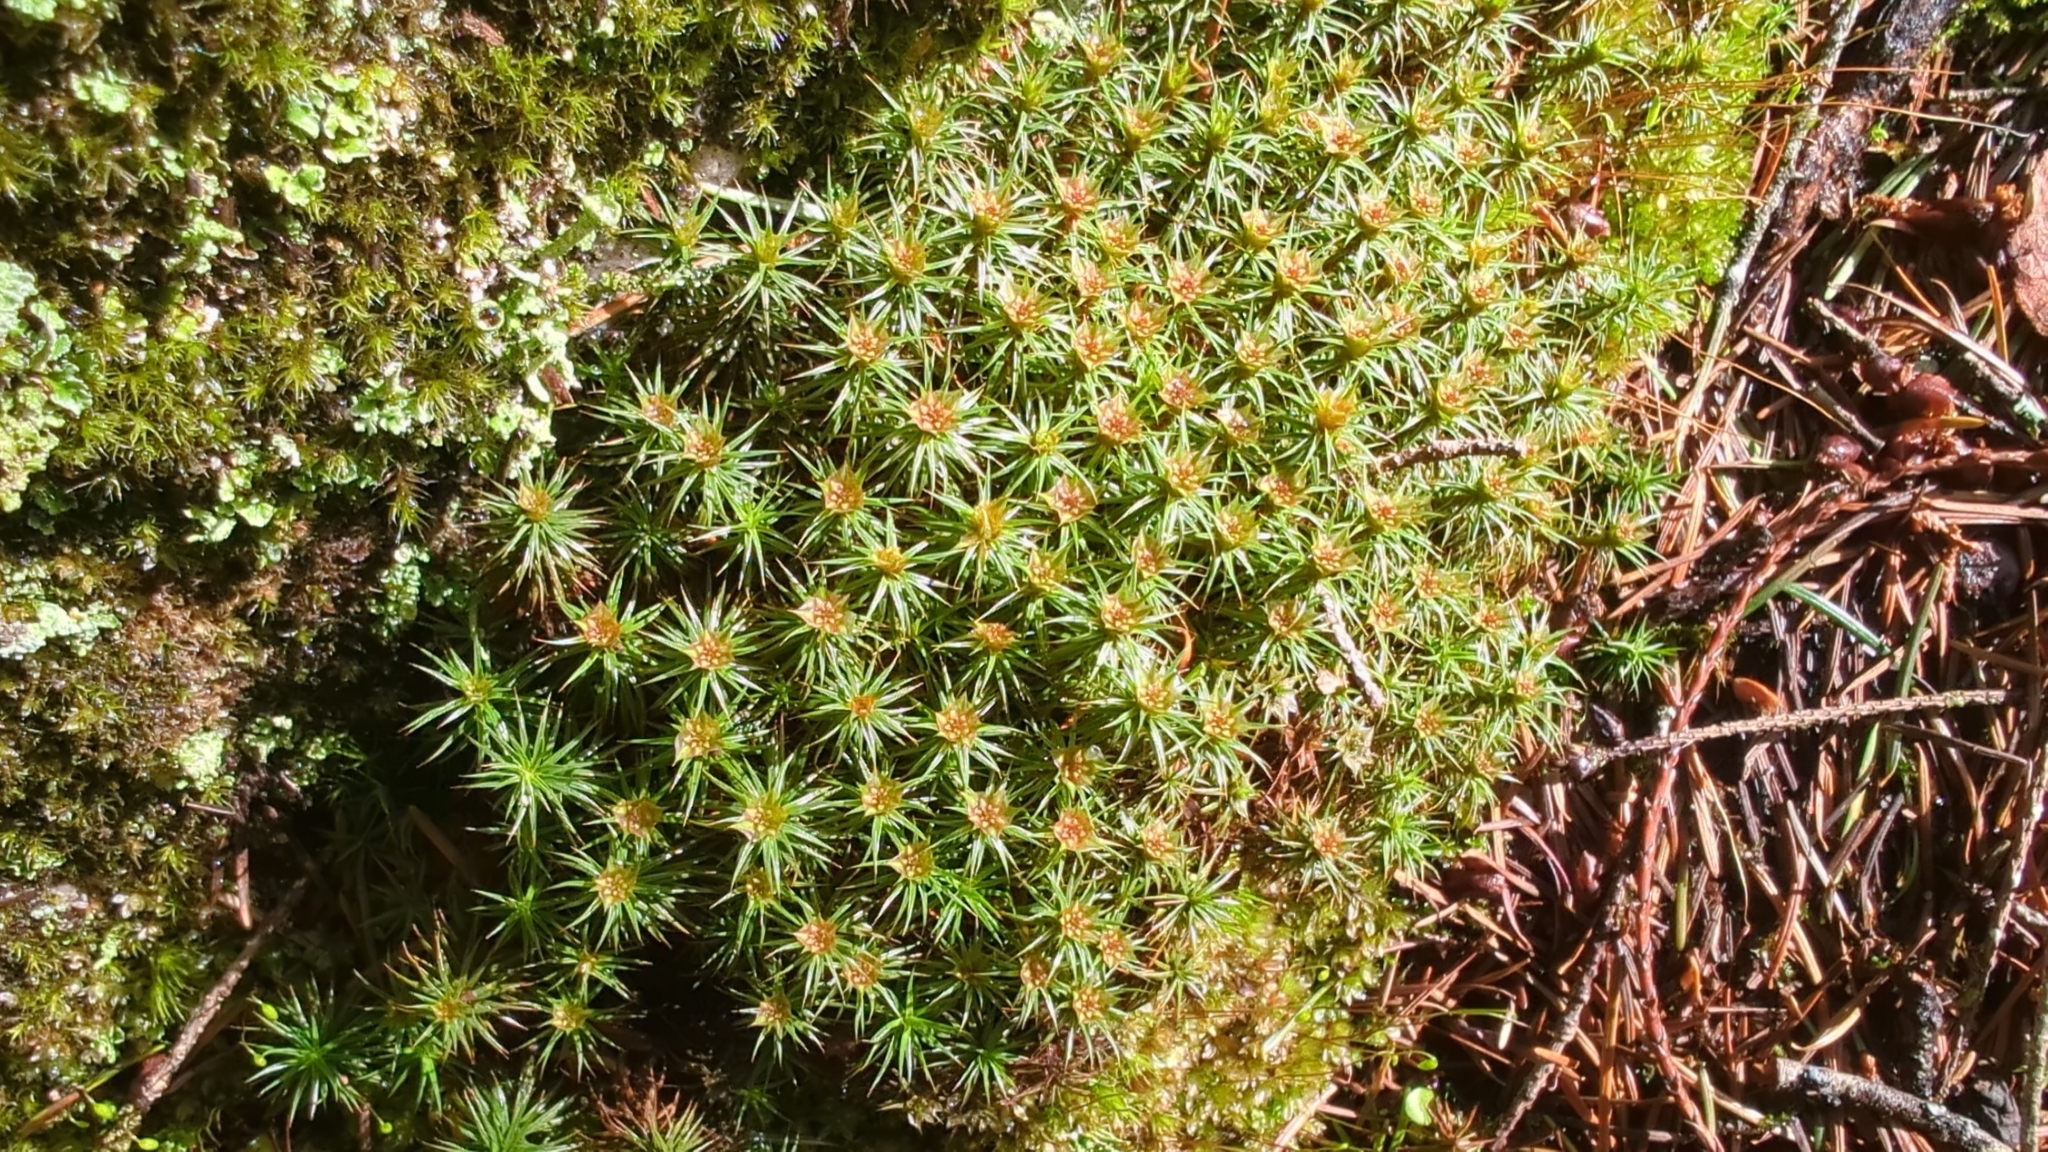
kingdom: Plantae
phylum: Bryophyta
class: Polytrichopsida
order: Polytrichales
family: Polytrichaceae
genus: Polytrichum
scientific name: Polytrichum juniperinum
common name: Juniper haircap moss
